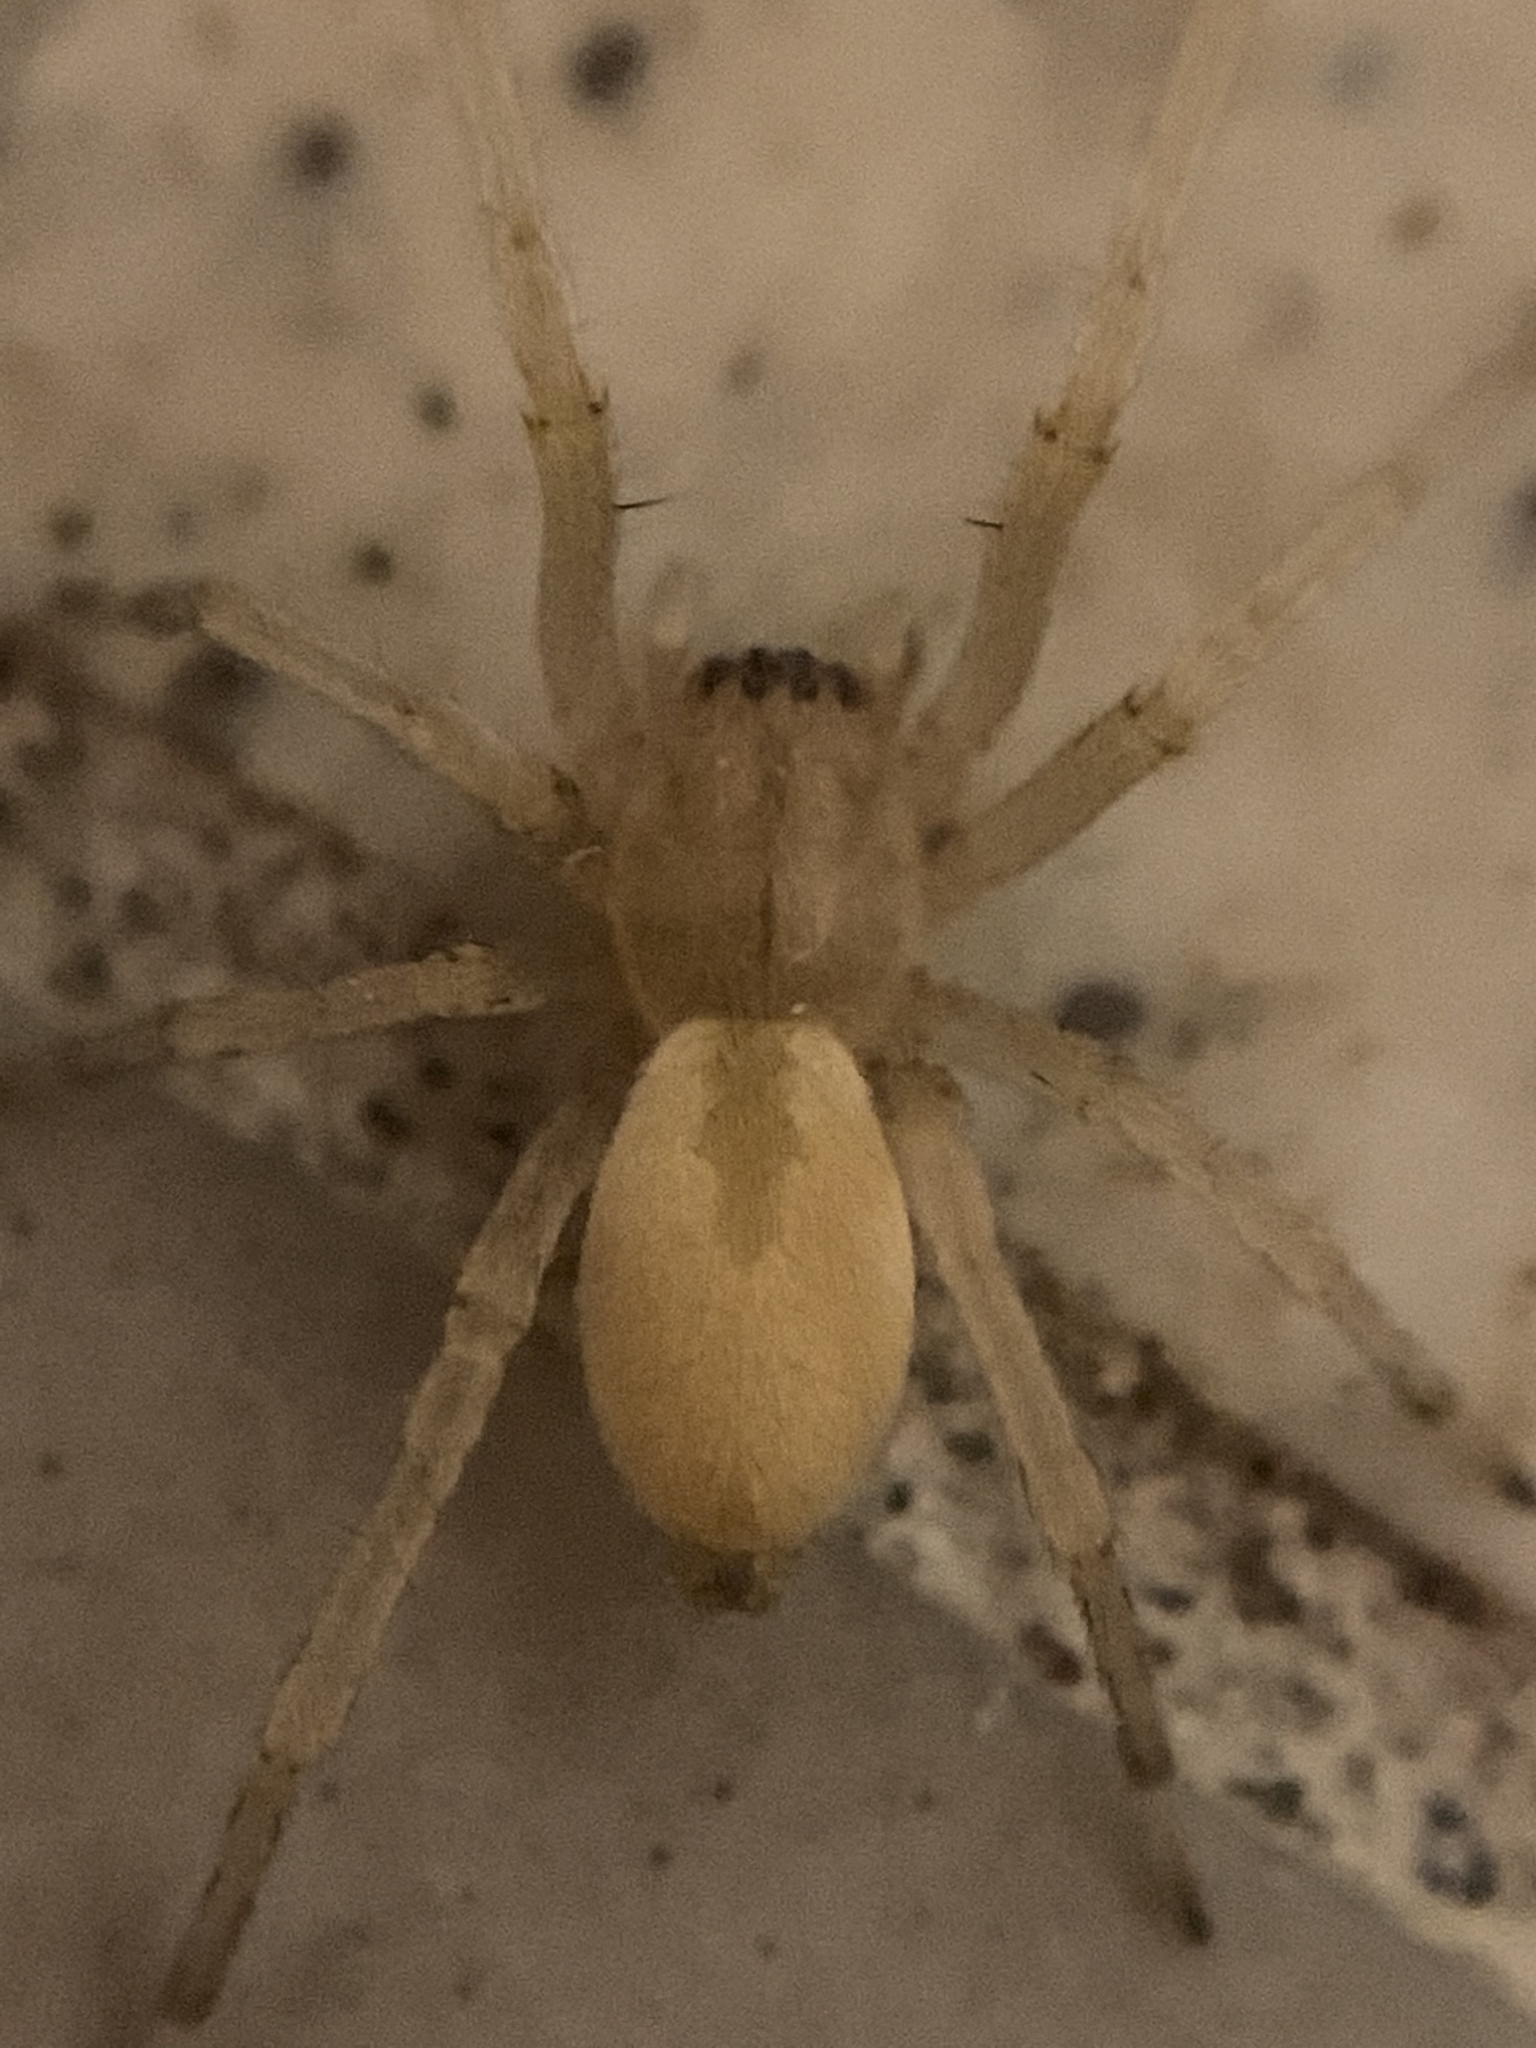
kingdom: Animalia
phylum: Arthropoda
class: Arachnida
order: Araneae
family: Cheiracanthiidae
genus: Cheiracanthium
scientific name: Cheiracanthium mildei
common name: Northern yellow sac spider
